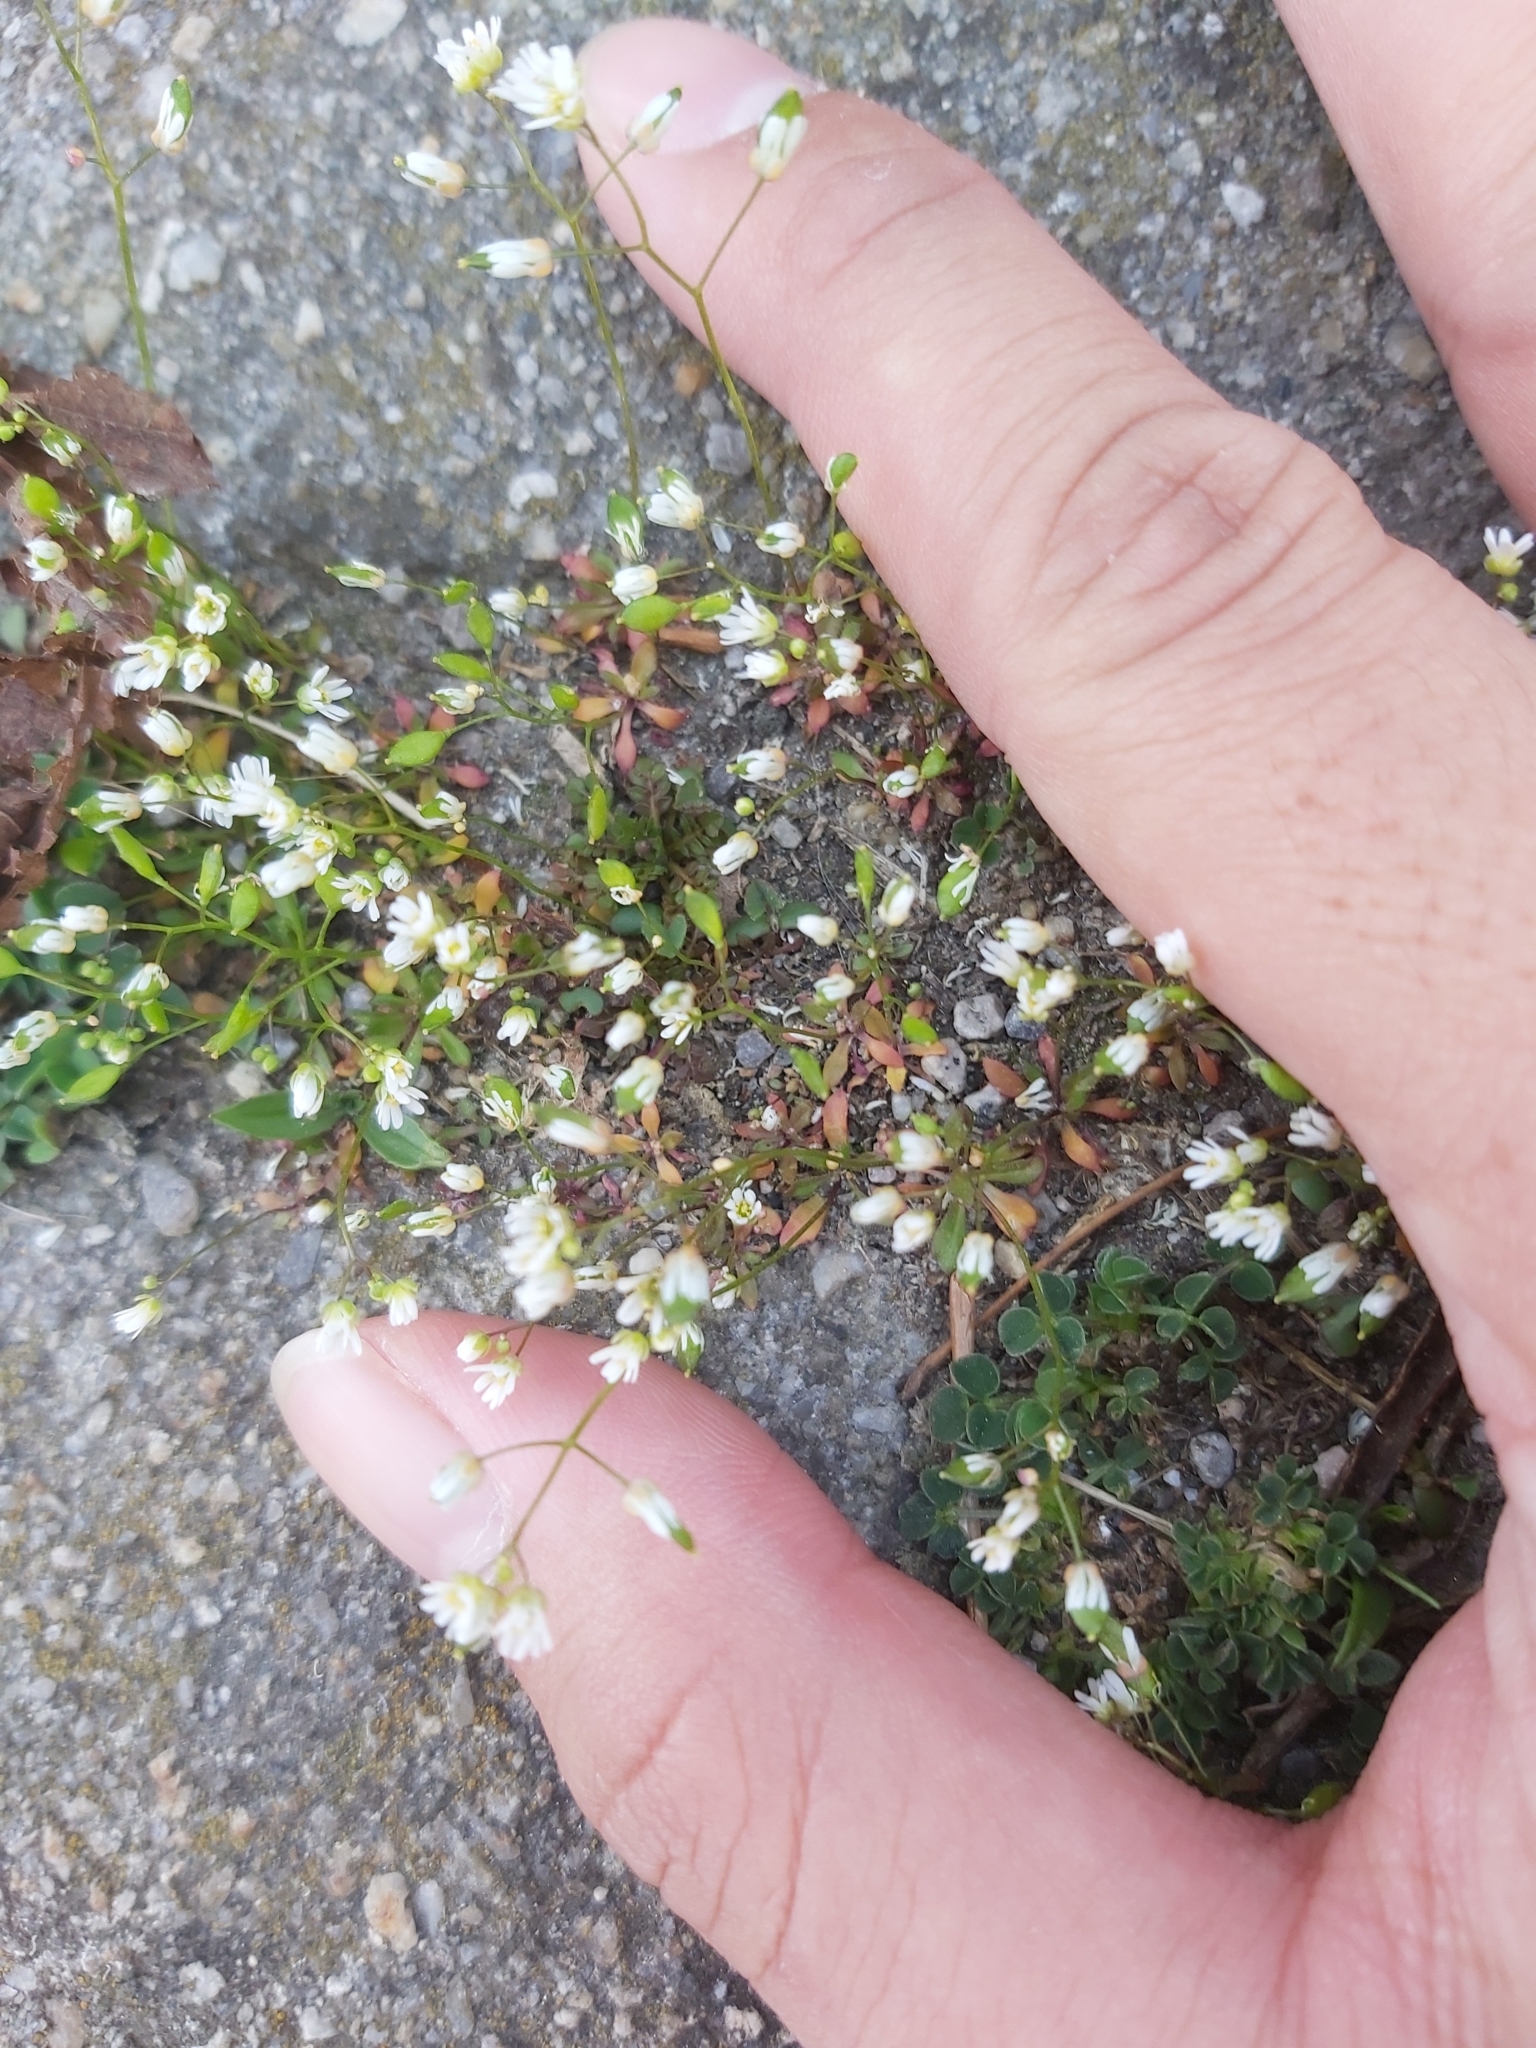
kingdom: Plantae
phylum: Tracheophyta
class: Magnoliopsida
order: Brassicales
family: Brassicaceae
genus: Draba
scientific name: Draba verna
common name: Spring draba
